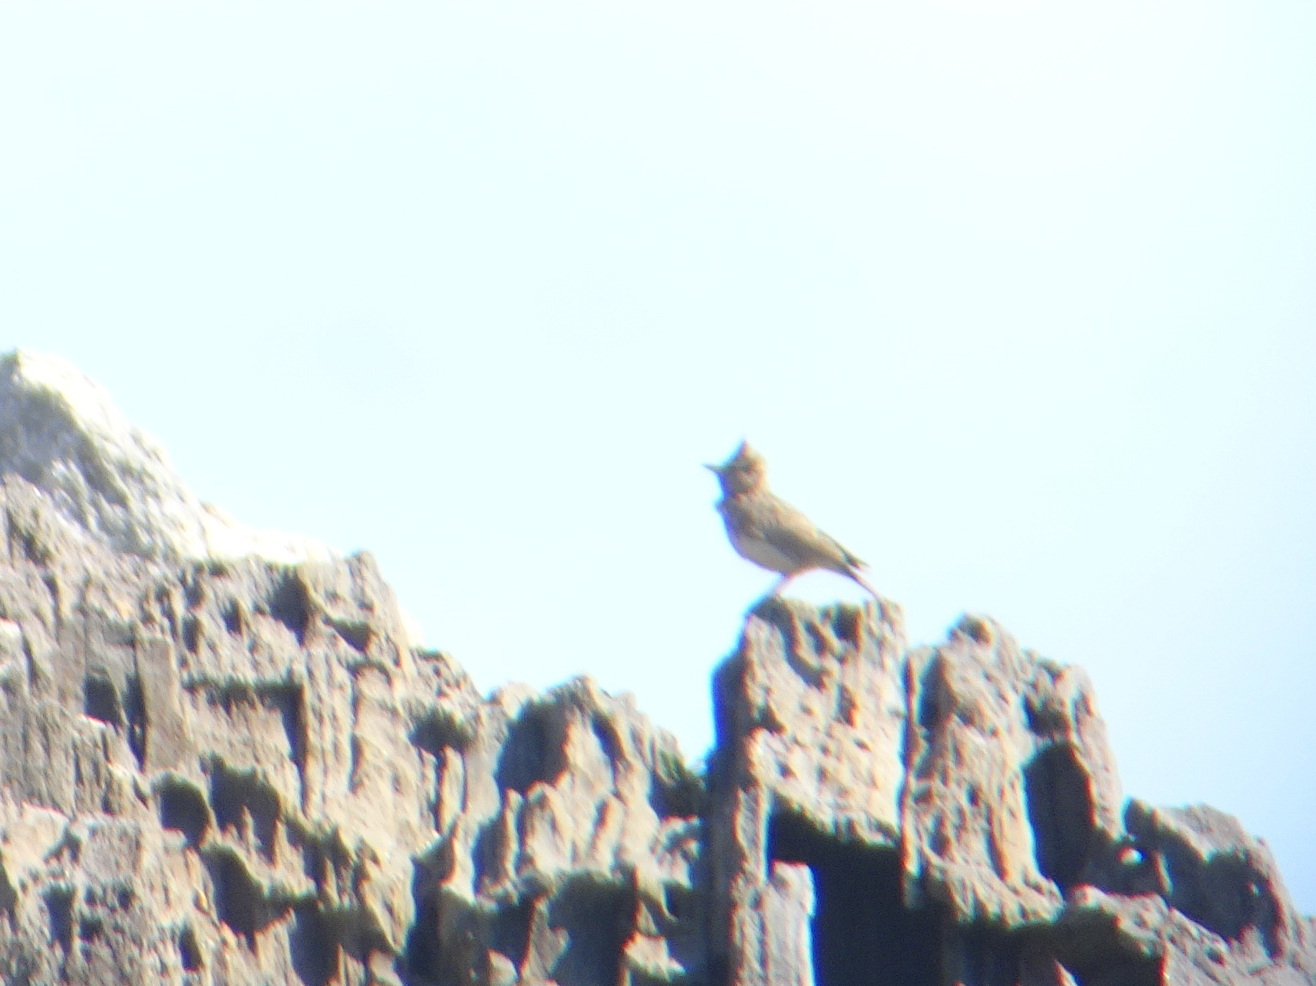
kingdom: Animalia
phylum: Chordata
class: Aves
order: Passeriformes
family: Alaudidae
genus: Galerida
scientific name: Galerida
